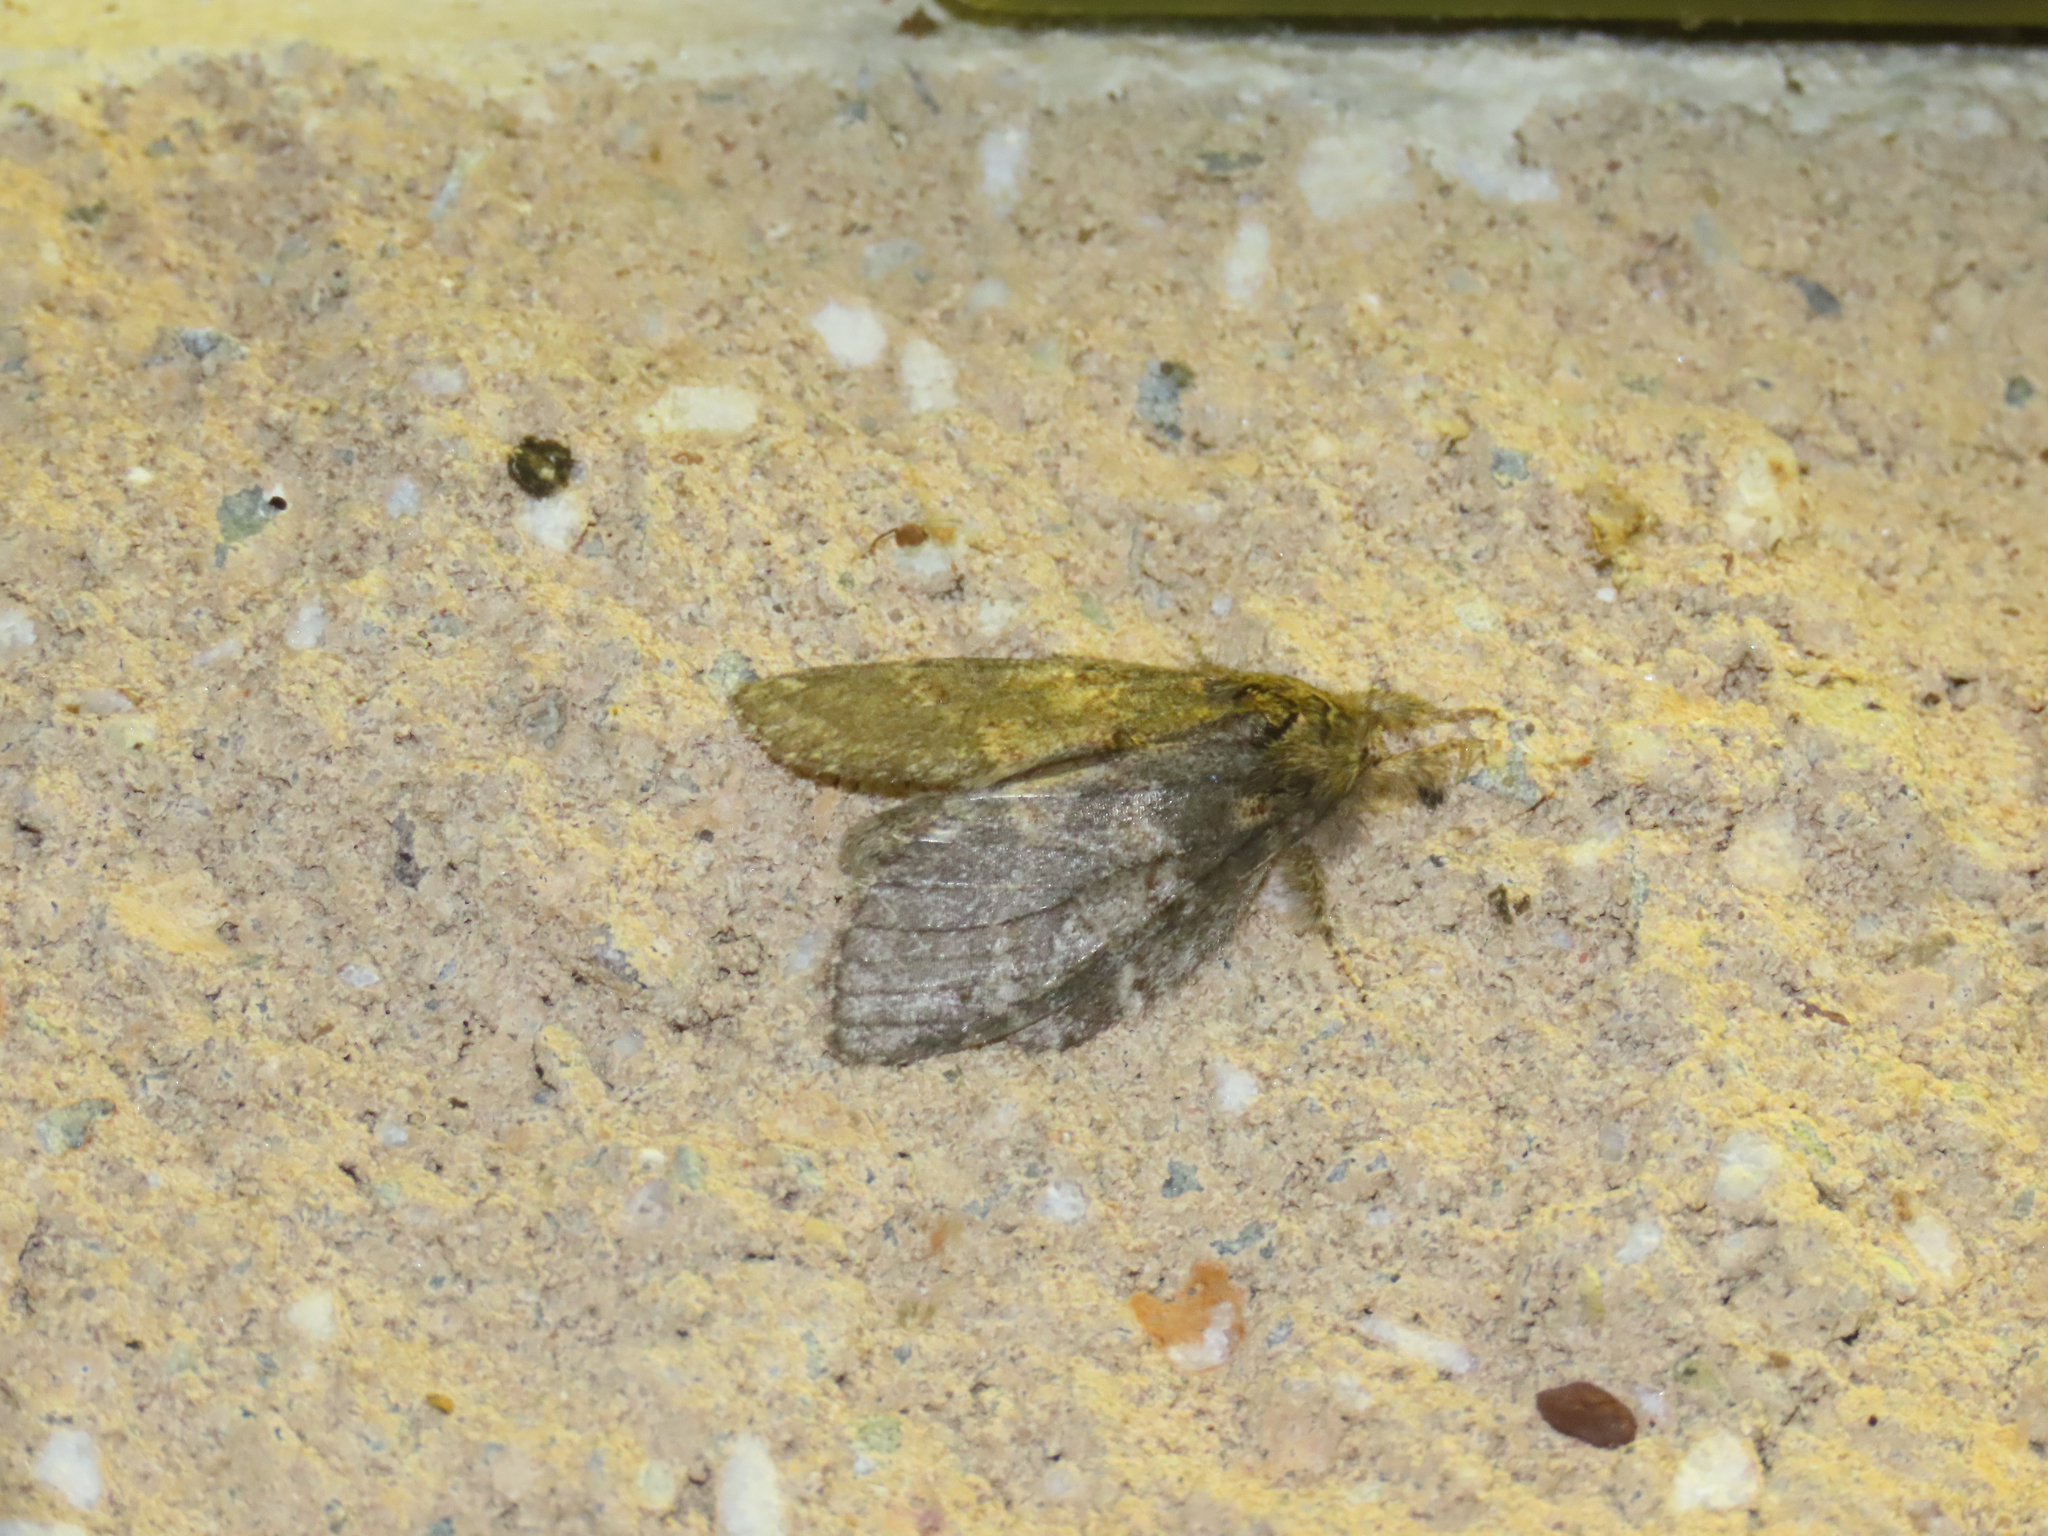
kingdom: Animalia
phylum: Arthropoda
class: Insecta
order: Lepidoptera
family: Notodontidae
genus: Peridea
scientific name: Peridea angulosa
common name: Angulose prominent
